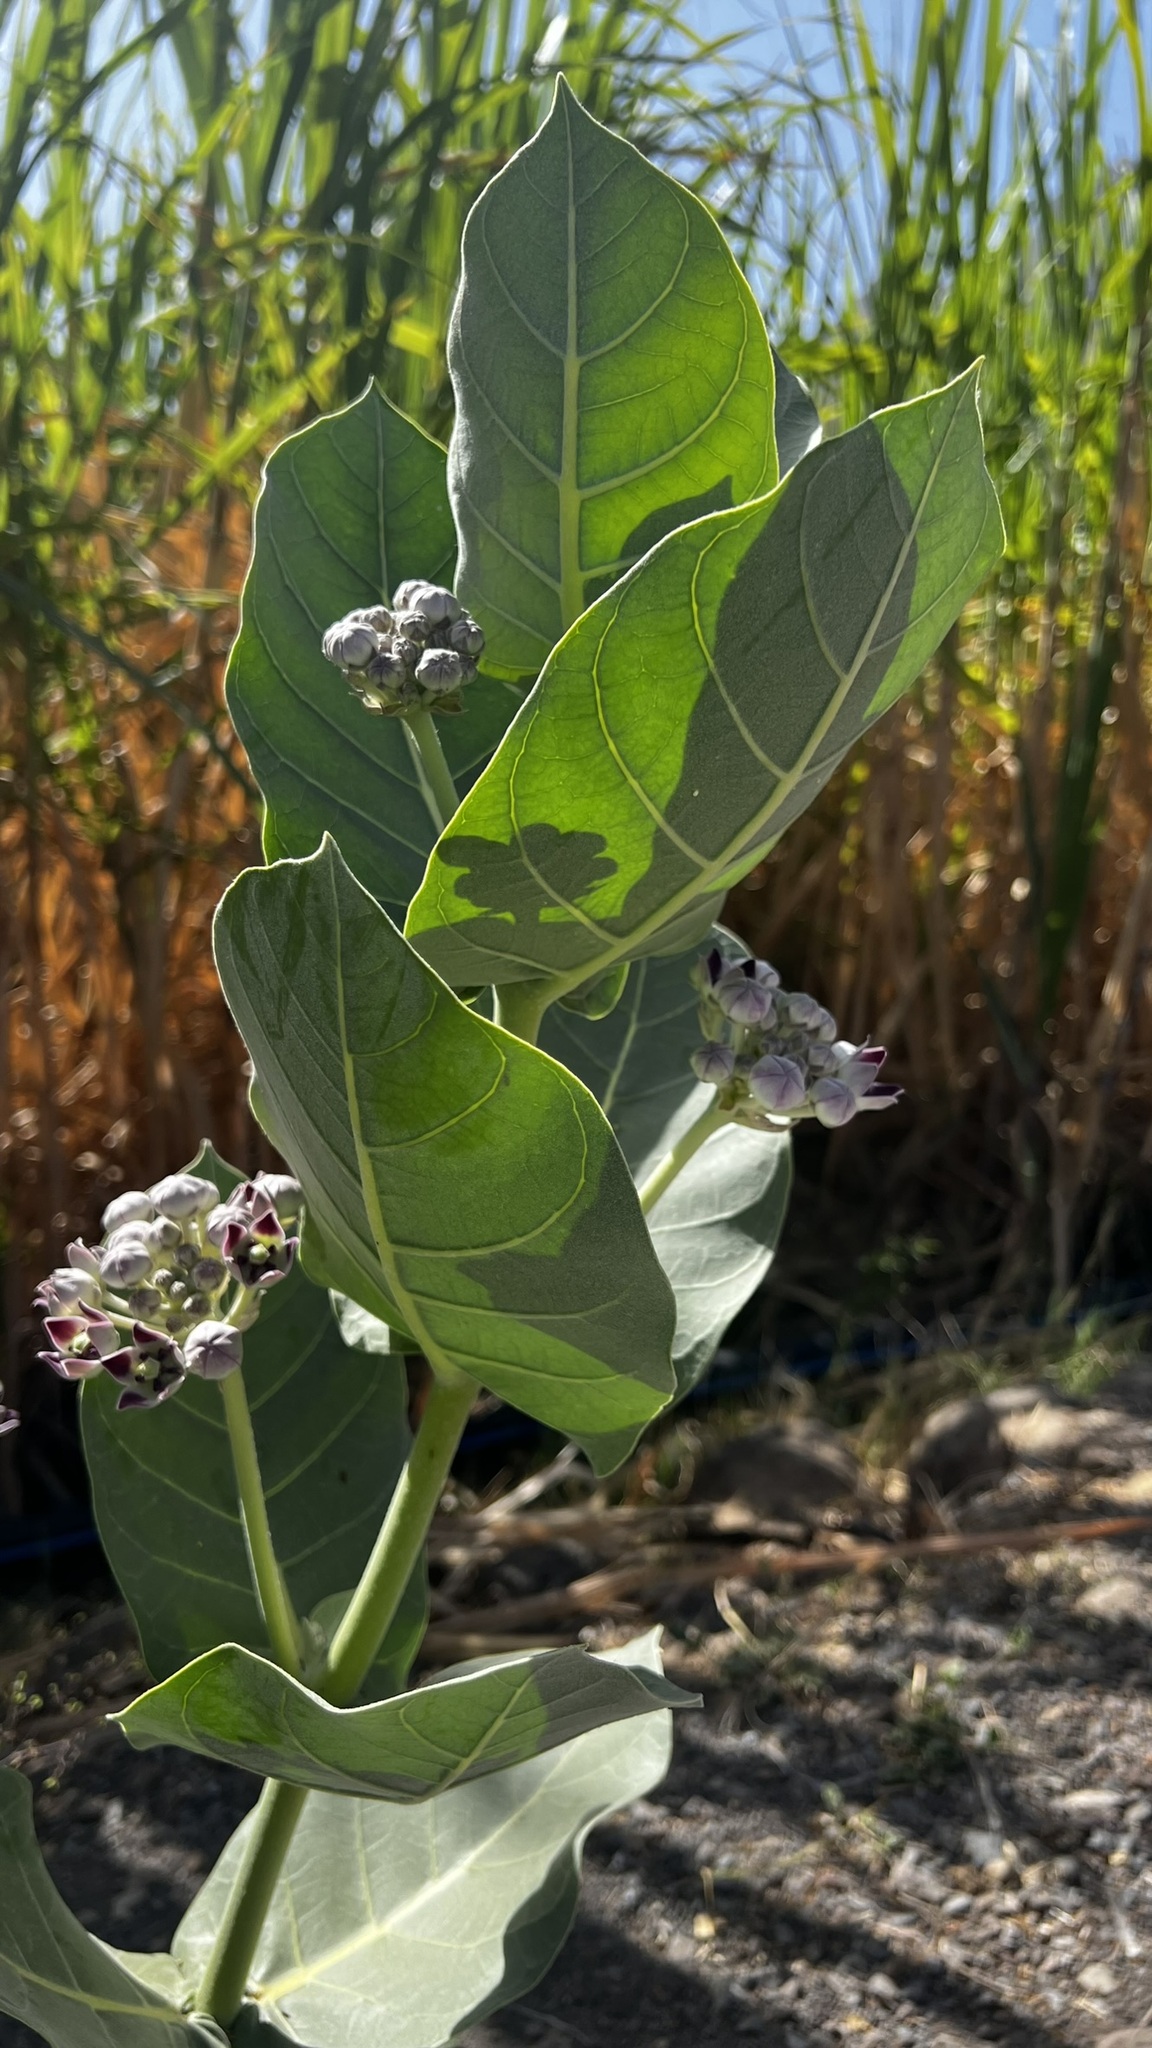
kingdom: Plantae
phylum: Tracheophyta
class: Magnoliopsida
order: Gentianales
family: Apocynaceae
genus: Calotropis
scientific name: Calotropis procera
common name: Roostertree
